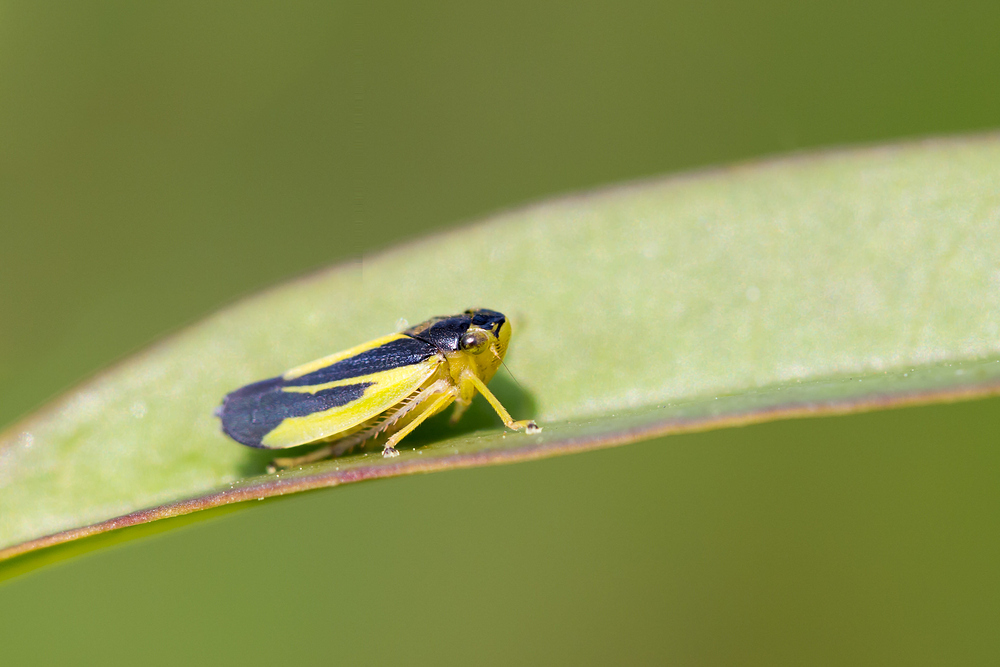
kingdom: Animalia
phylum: Arthropoda
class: Insecta
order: Hemiptera
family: Cicadellidae
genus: Evacanthus
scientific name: Evacanthus interruptus
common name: Leafhopper
